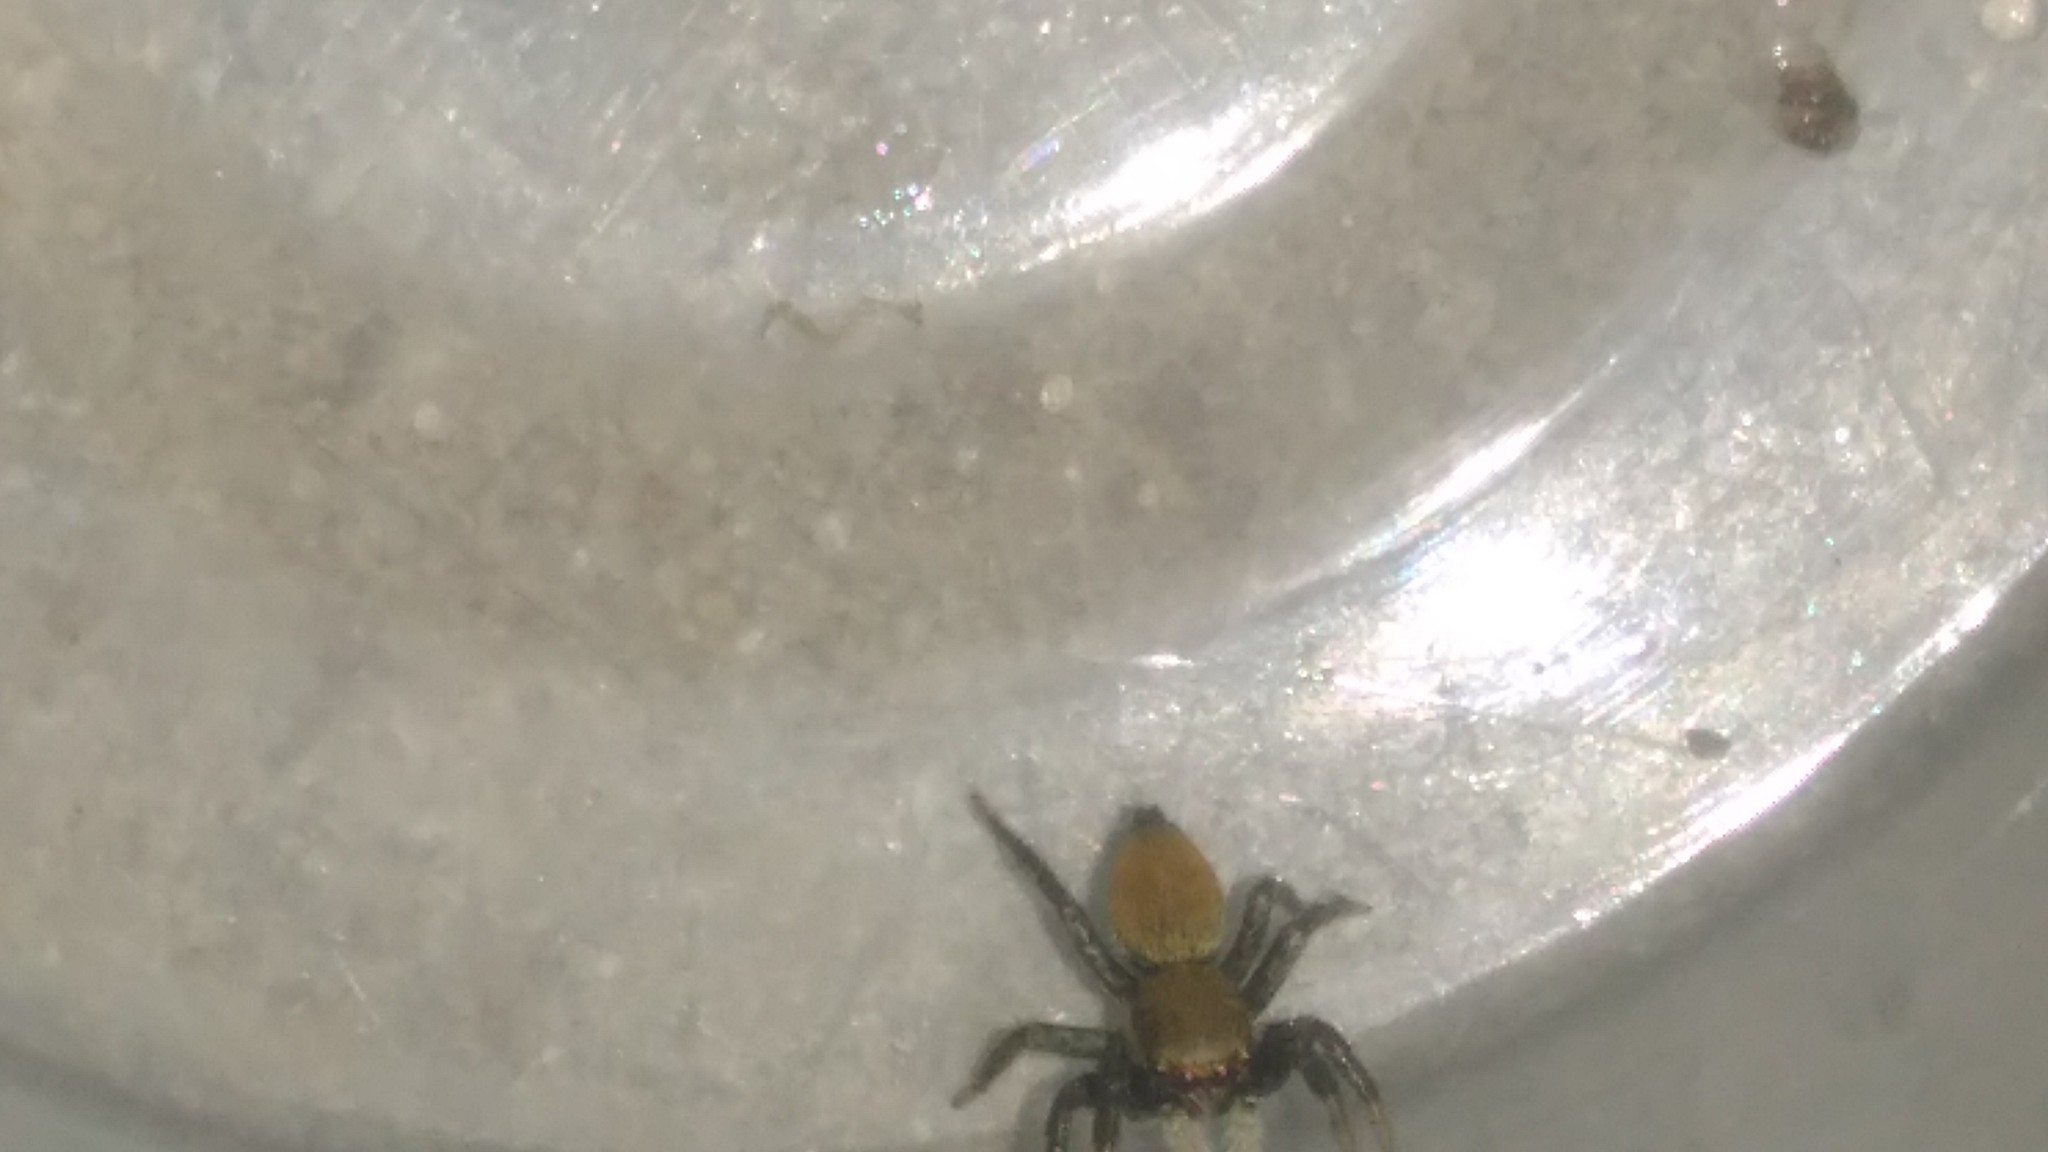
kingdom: Animalia
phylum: Arthropoda
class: Arachnida
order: Araneae
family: Salticidae
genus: Phiale
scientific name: Phiale roburifoliata
